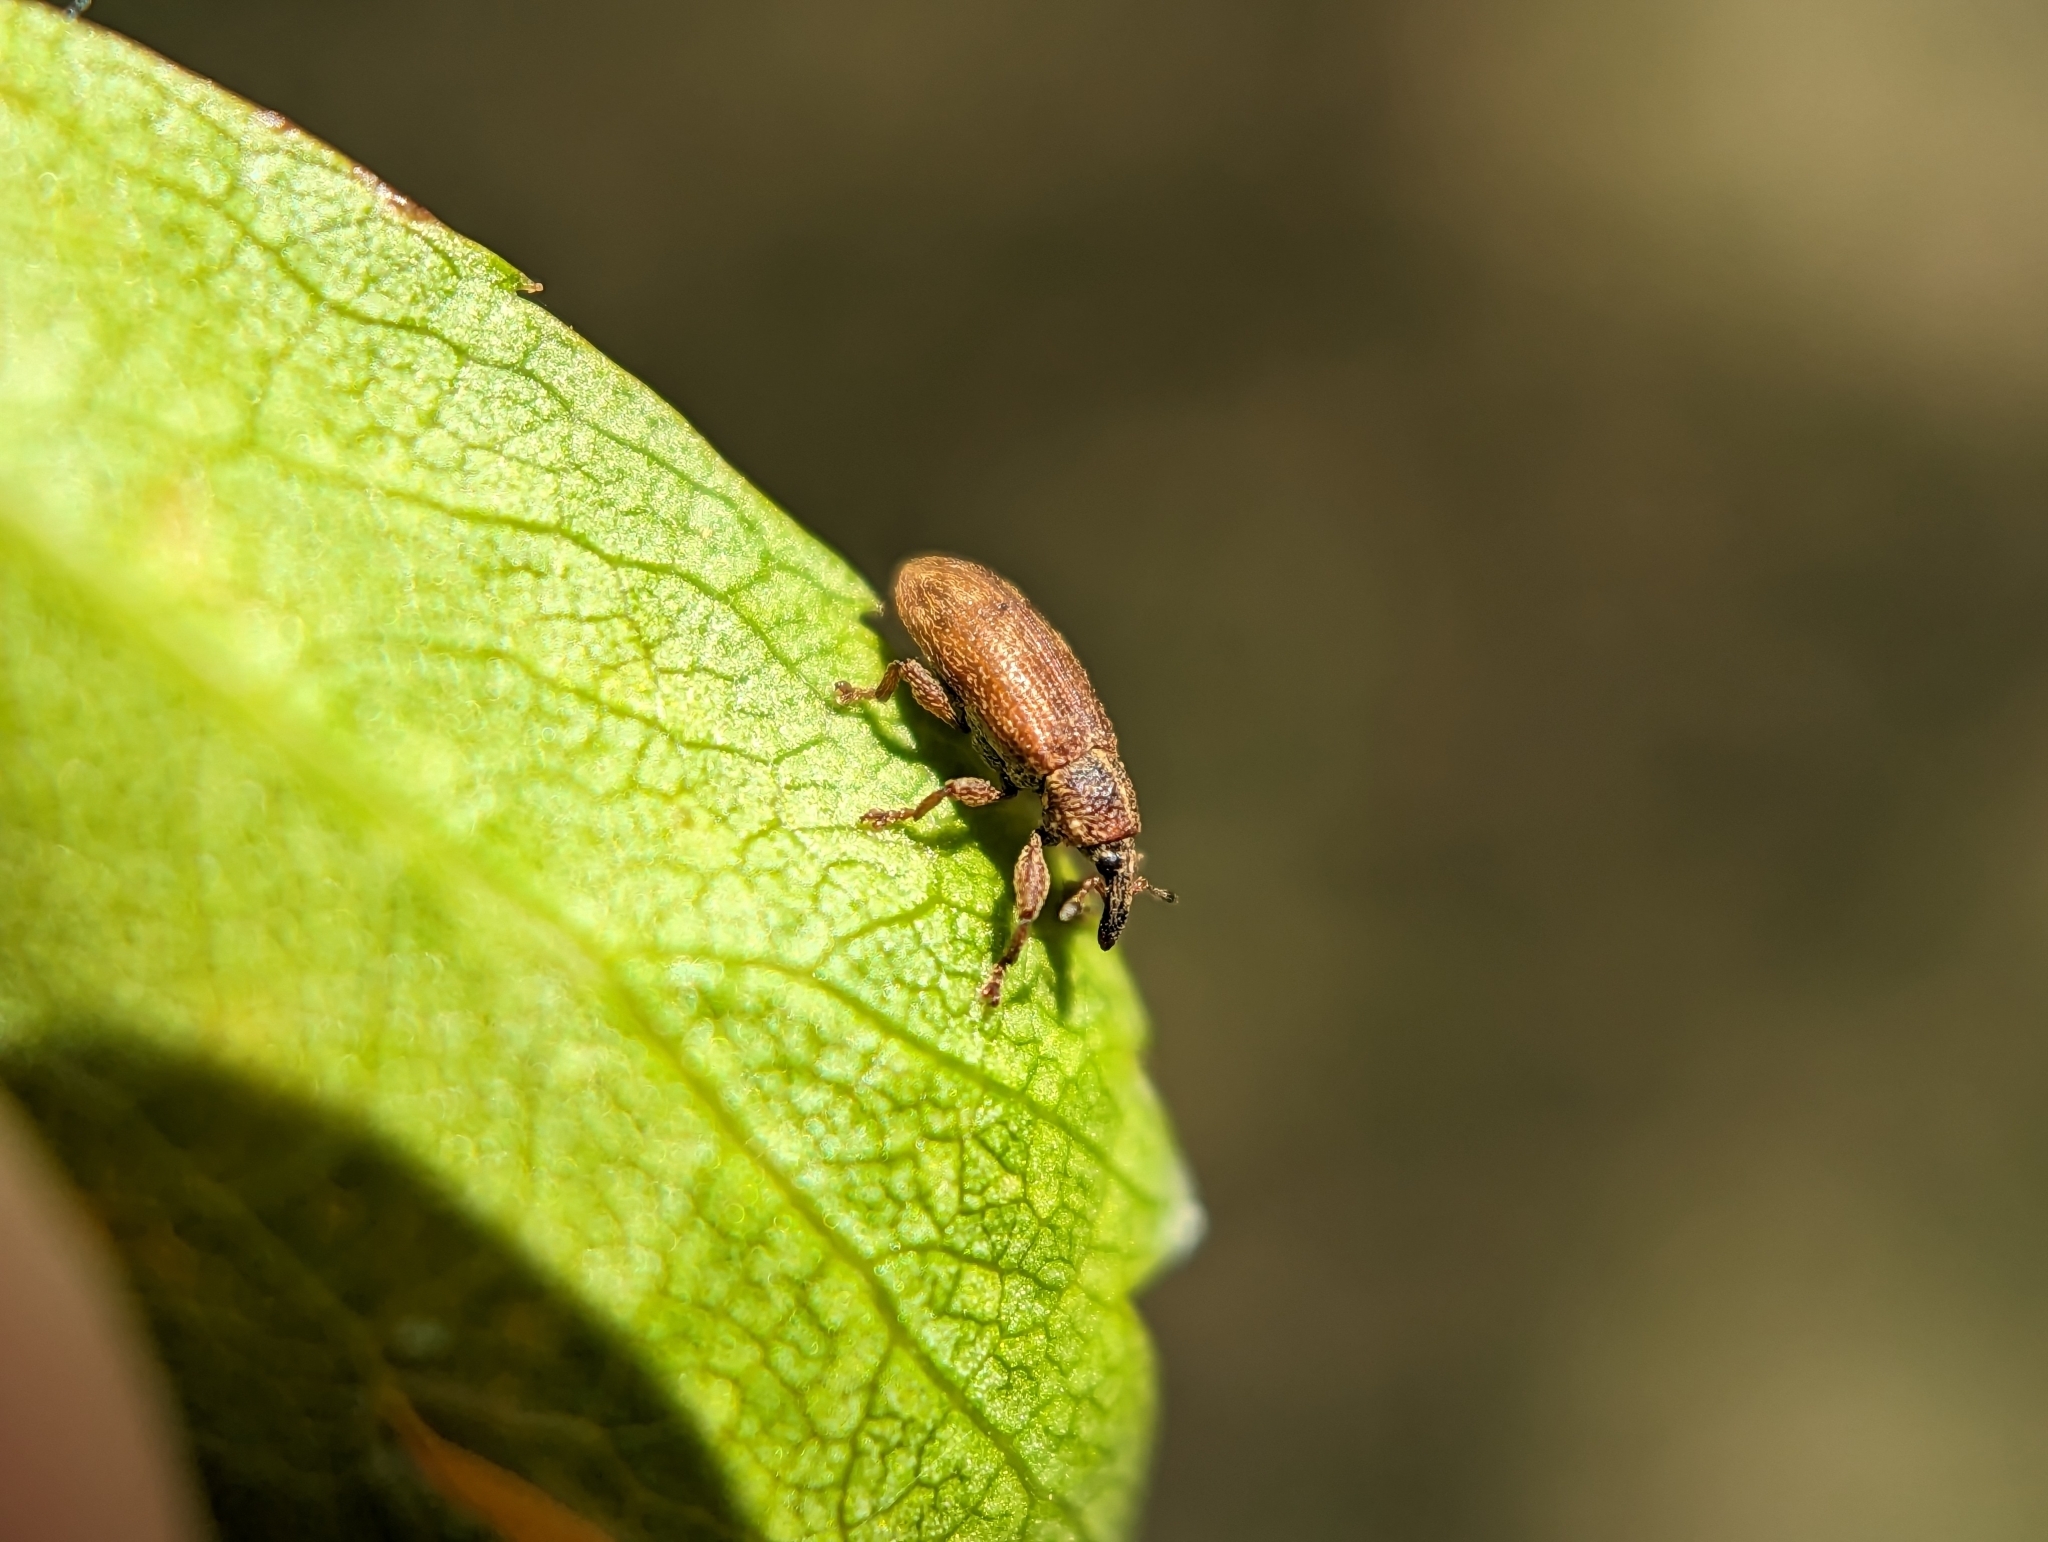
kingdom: Animalia
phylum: Arthropoda
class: Insecta
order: Coleoptera
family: Curculionidae
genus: Bradybatus
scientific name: Bradybatus kellneri
